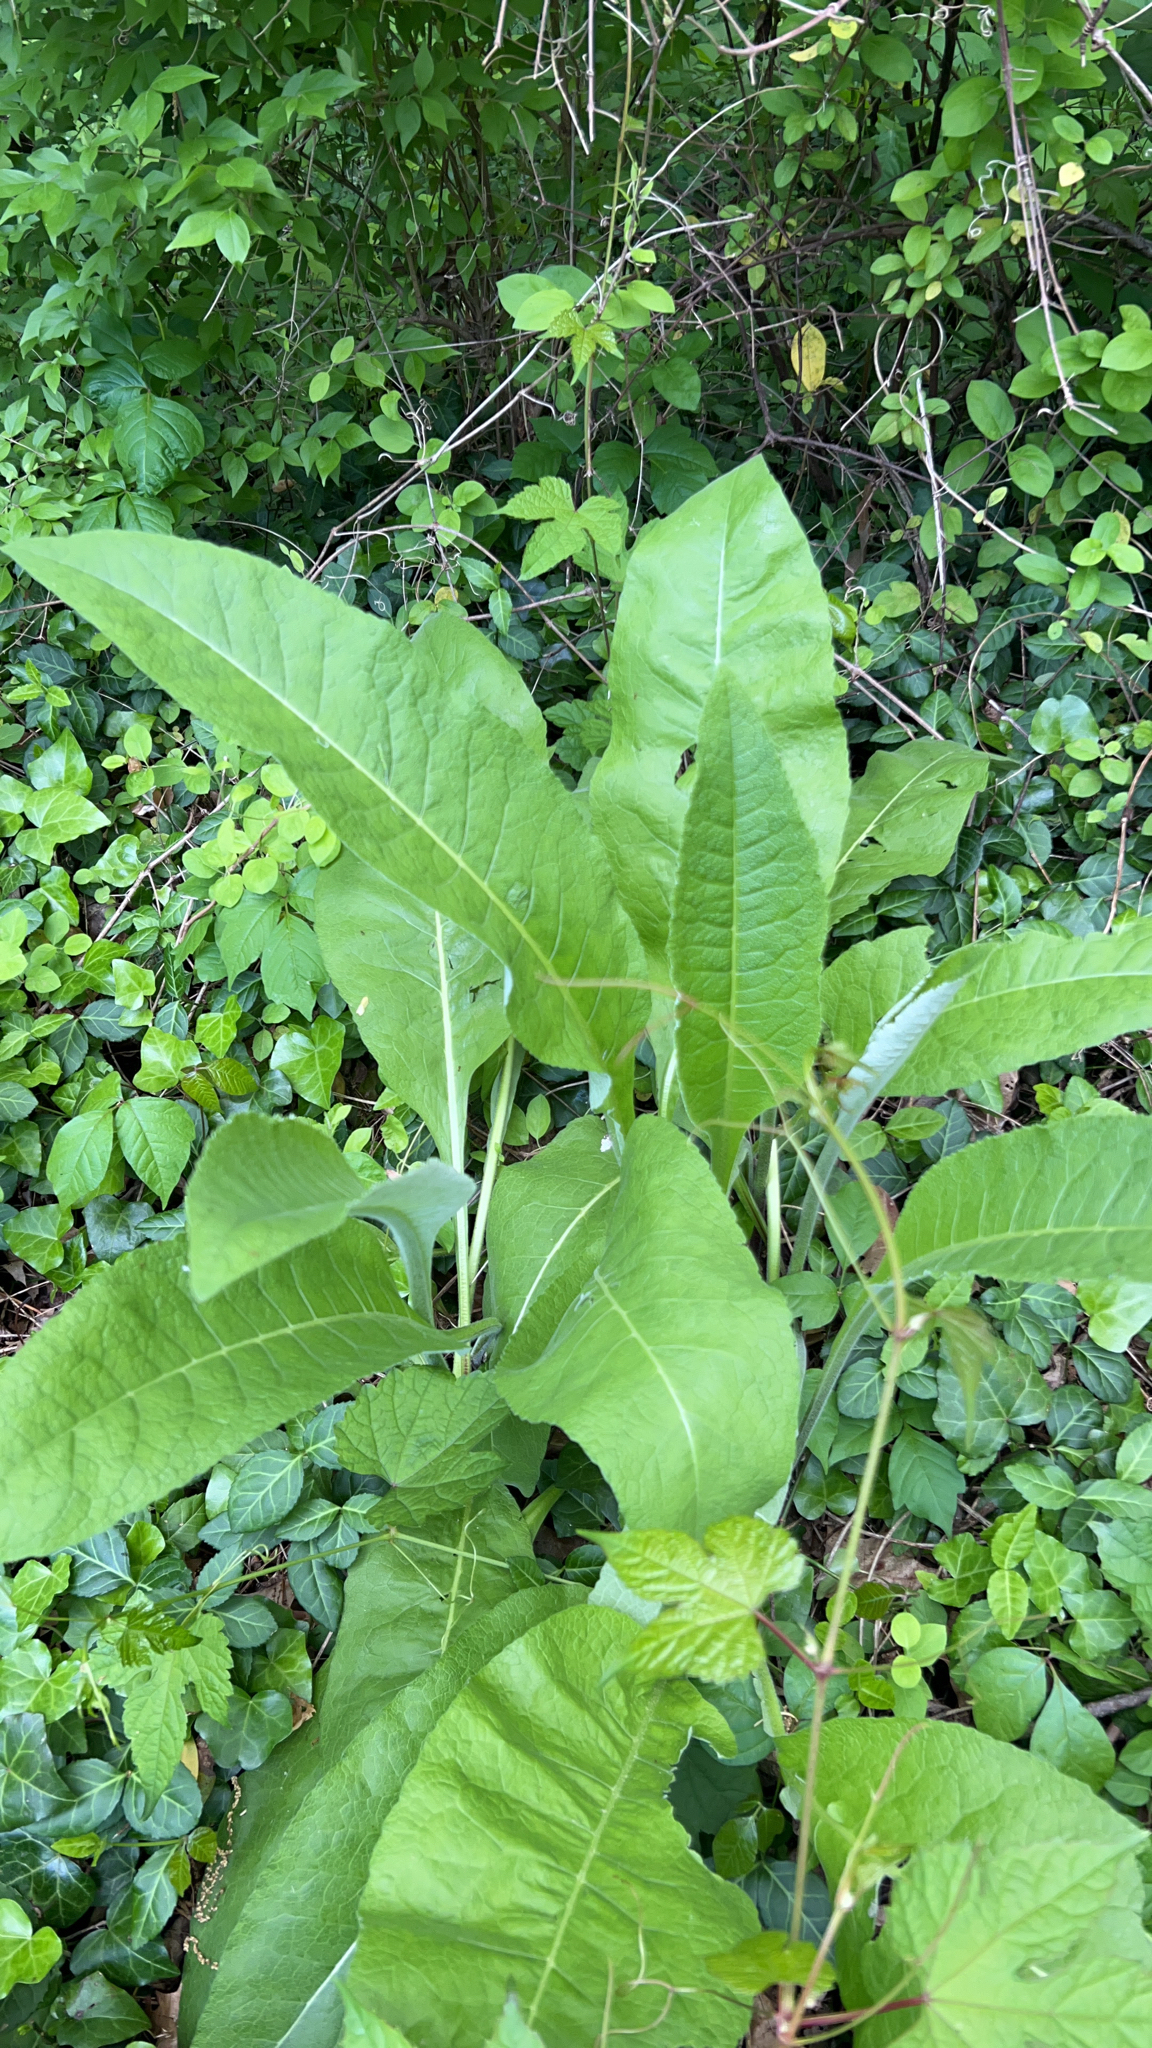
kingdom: Plantae
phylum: Tracheophyta
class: Magnoliopsida
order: Asterales
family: Asteraceae
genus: Inula
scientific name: Inula helenium
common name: Elecampane
